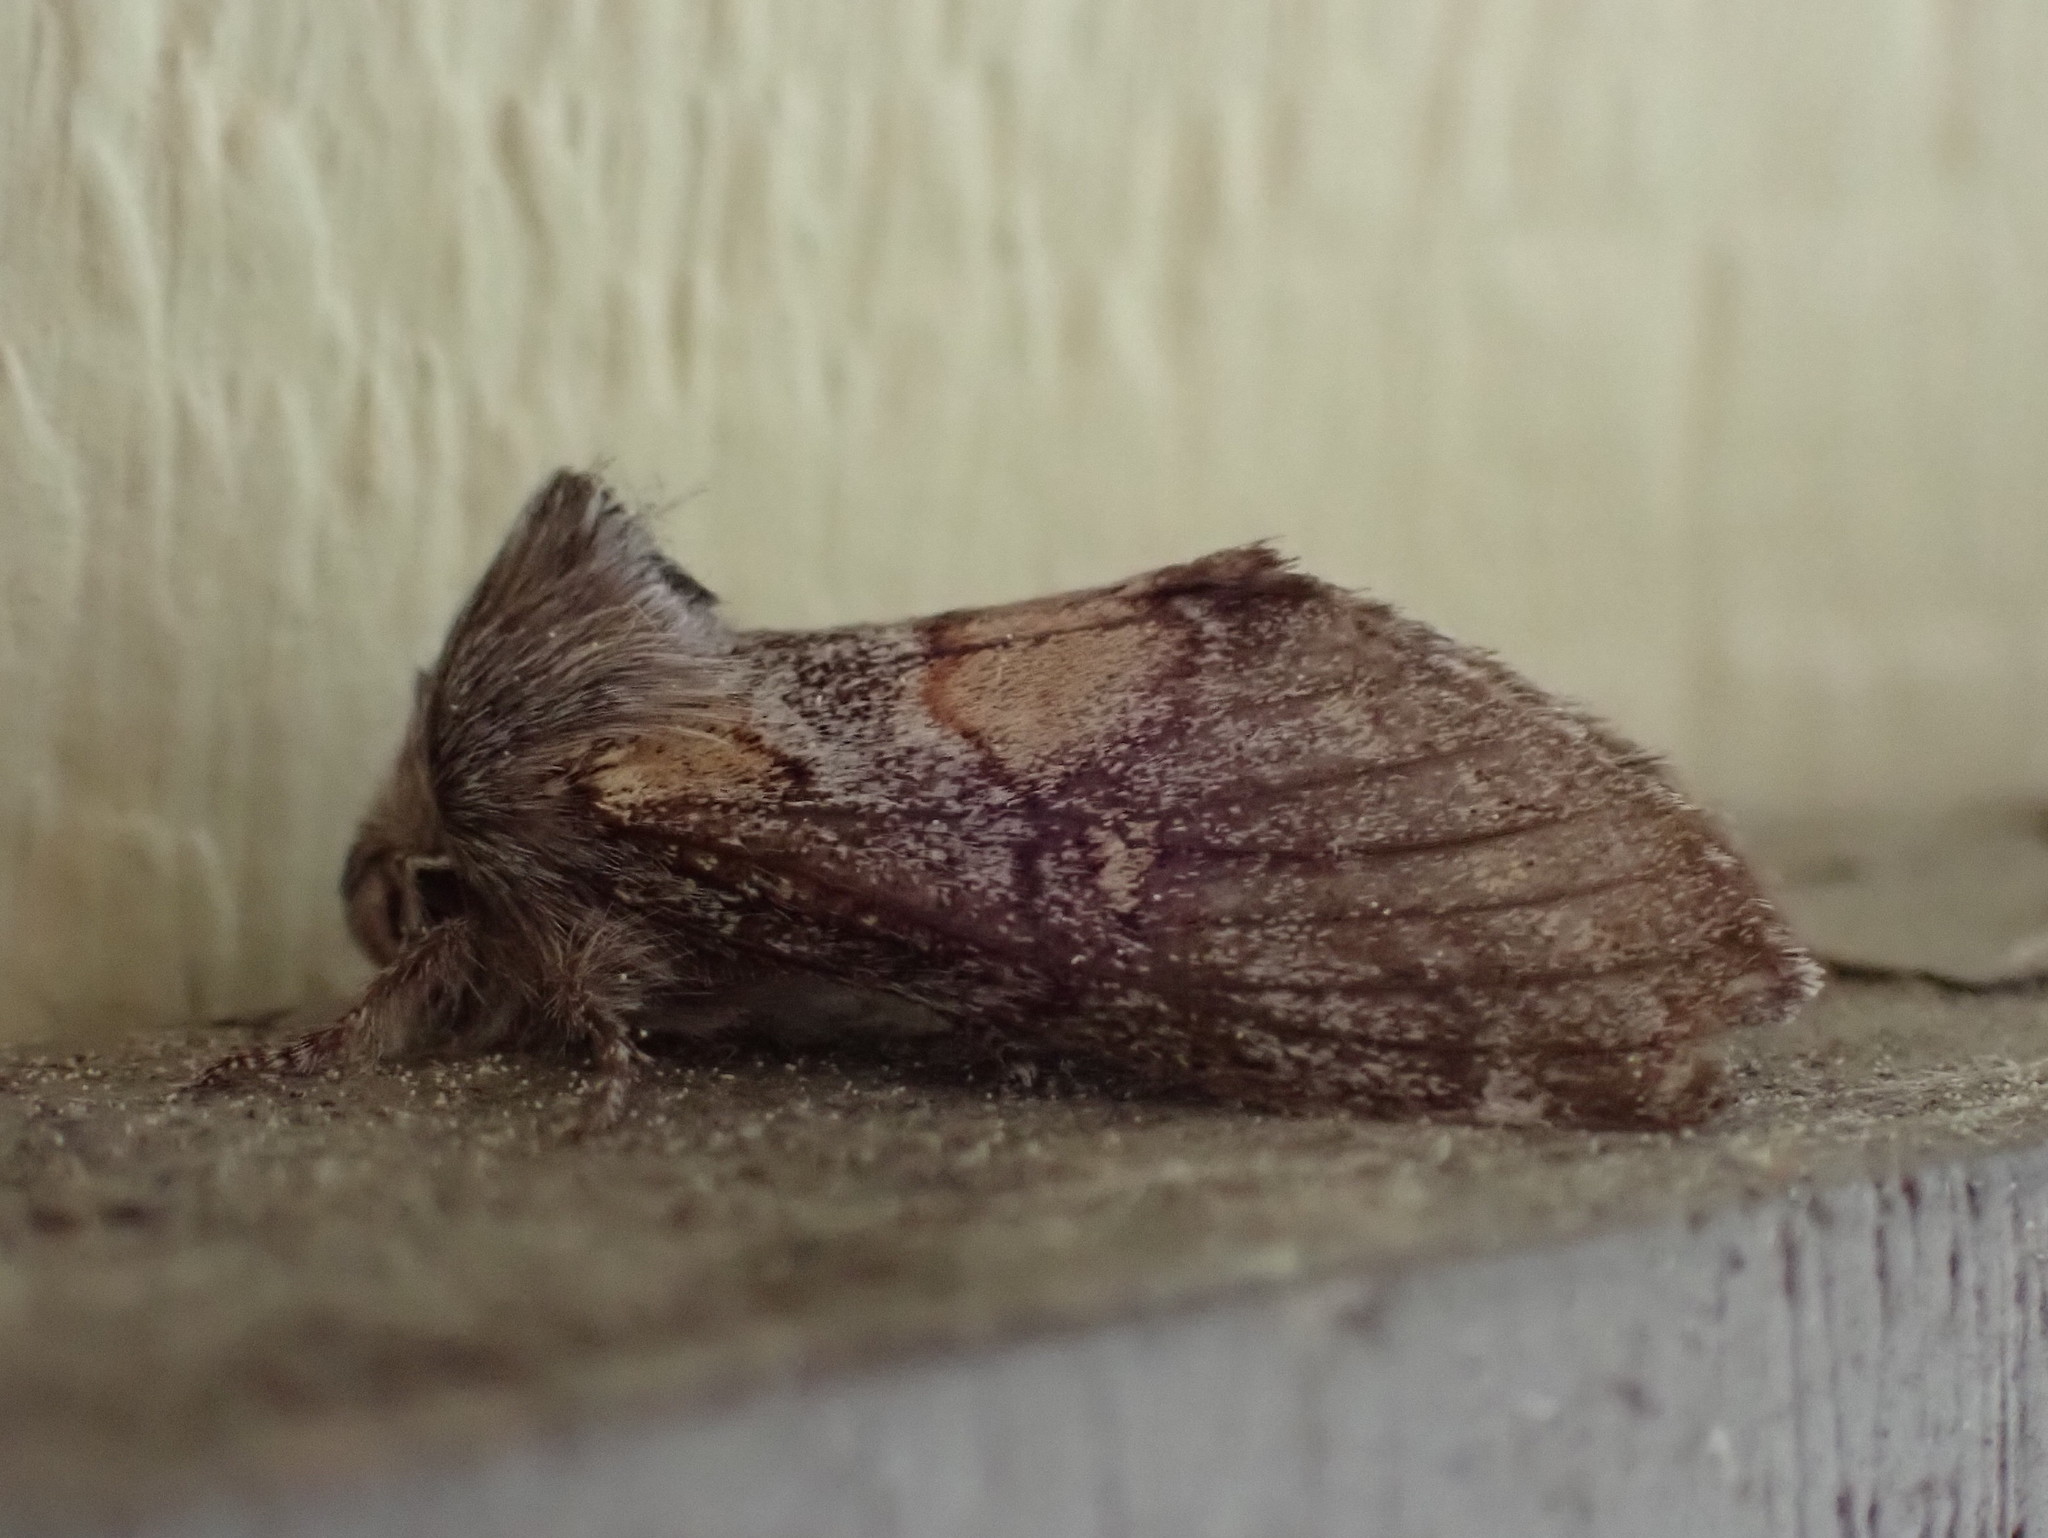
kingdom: Animalia
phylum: Arthropoda
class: Insecta
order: Lepidoptera
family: Notodontidae
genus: Gluphisia
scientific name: Gluphisia avimacula
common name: Four-spotted gluphisia moth
